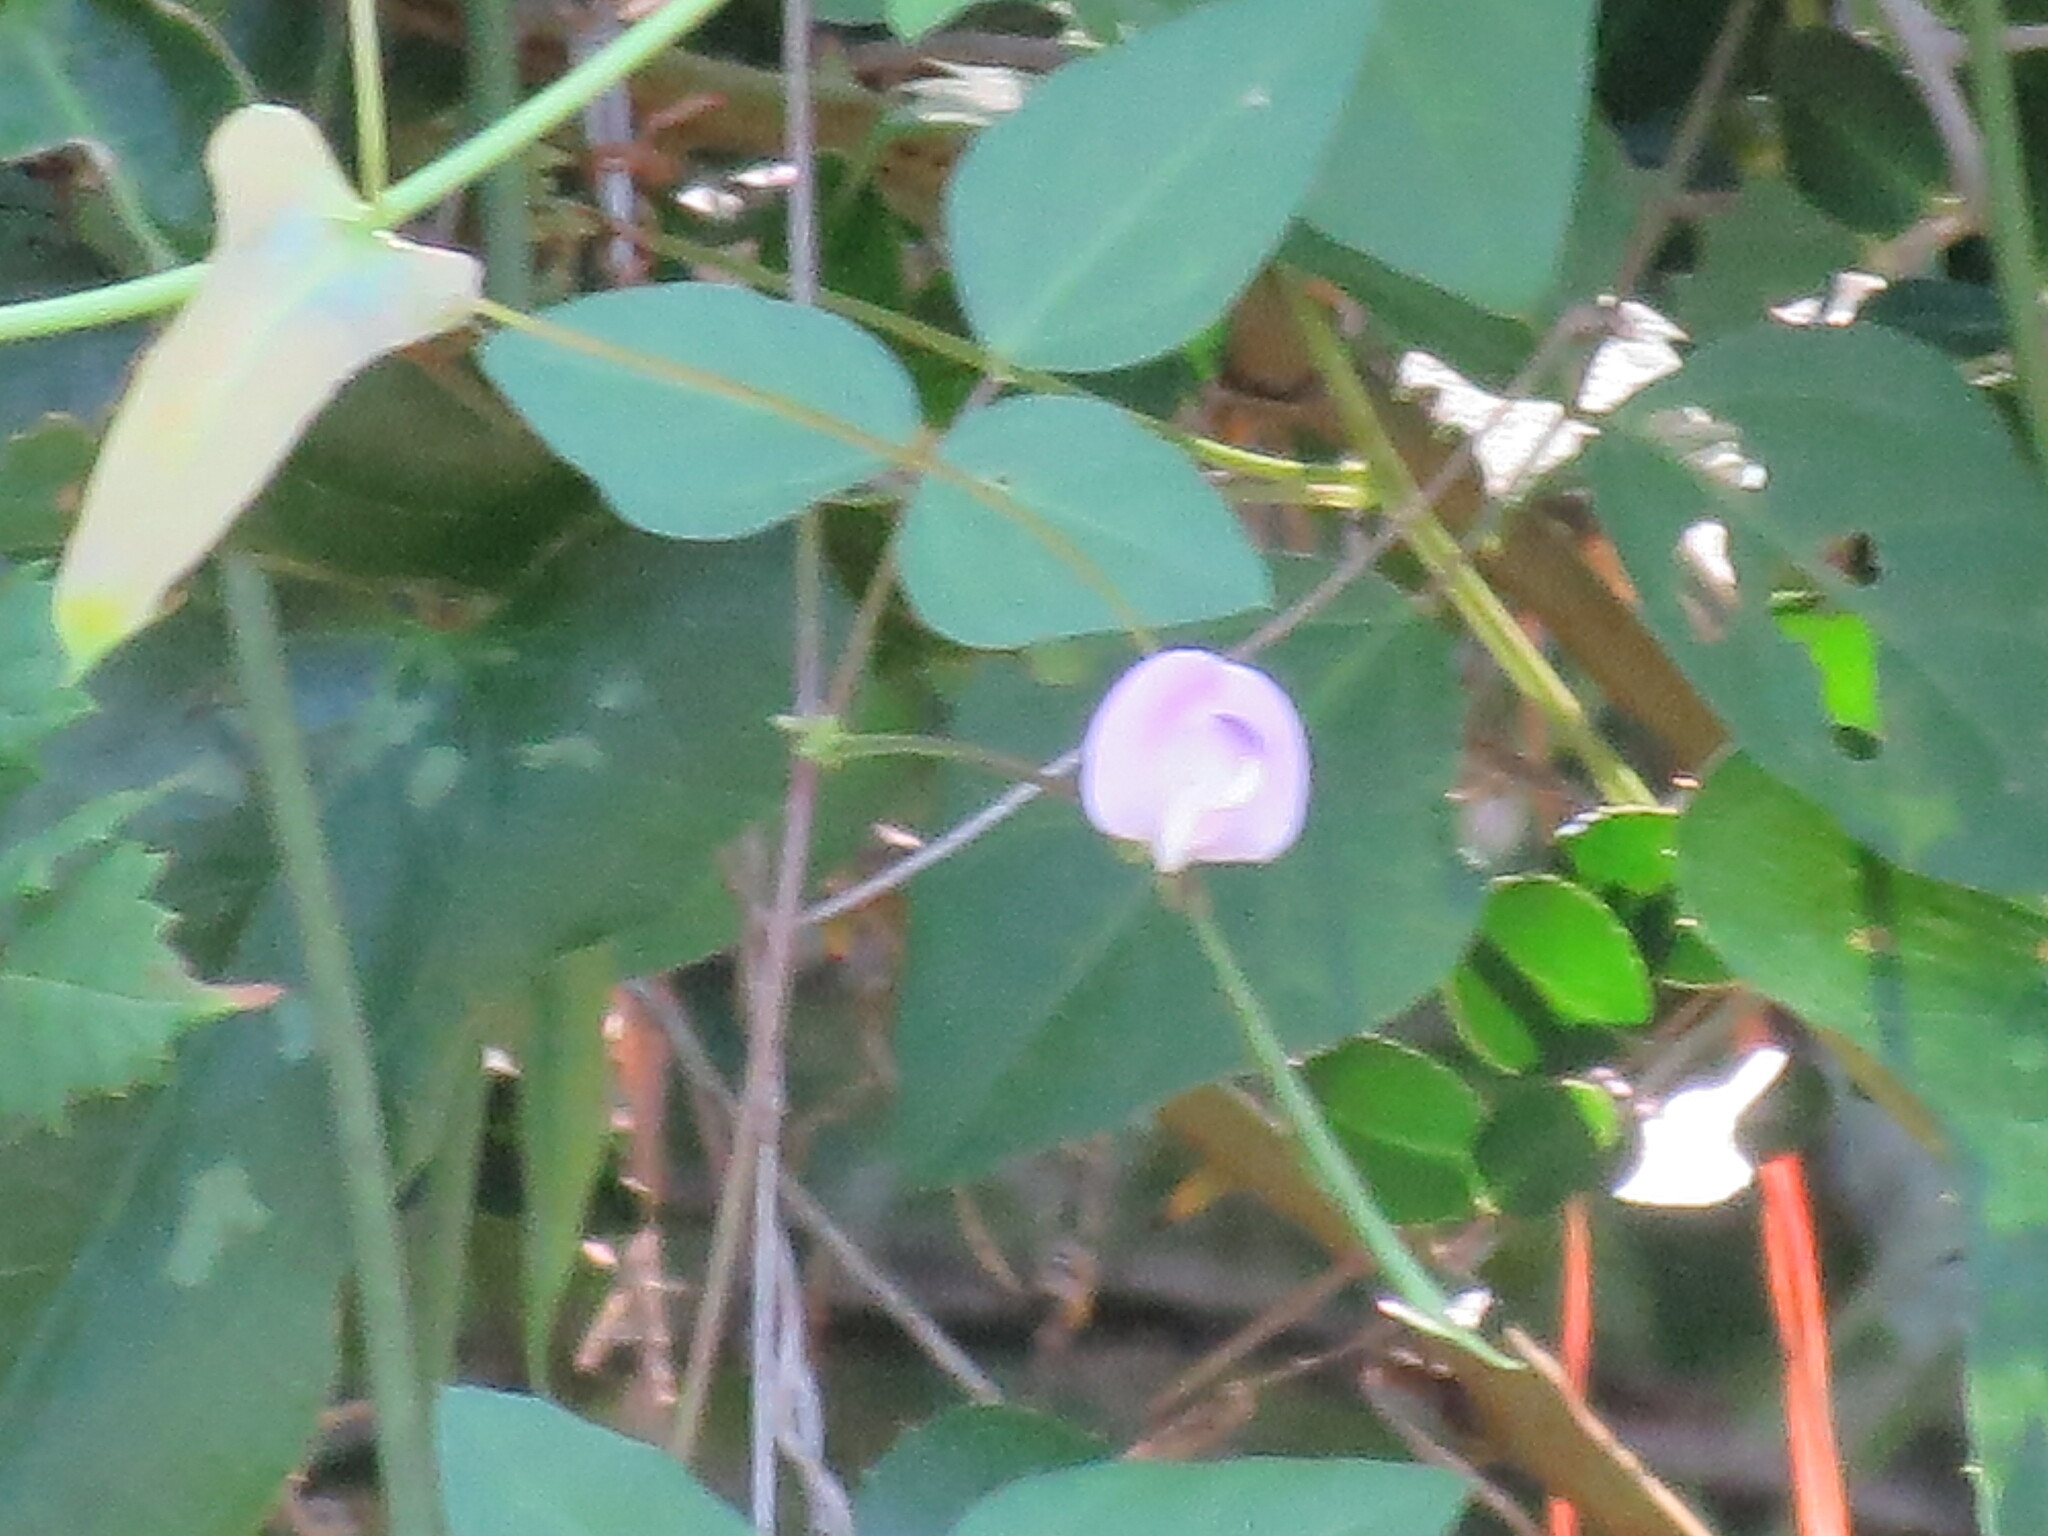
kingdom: Plantae
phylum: Tracheophyta
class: Magnoliopsida
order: Fabales
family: Fabaceae
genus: Strophostyles
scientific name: Strophostyles helvola
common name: Trailing wild bean
